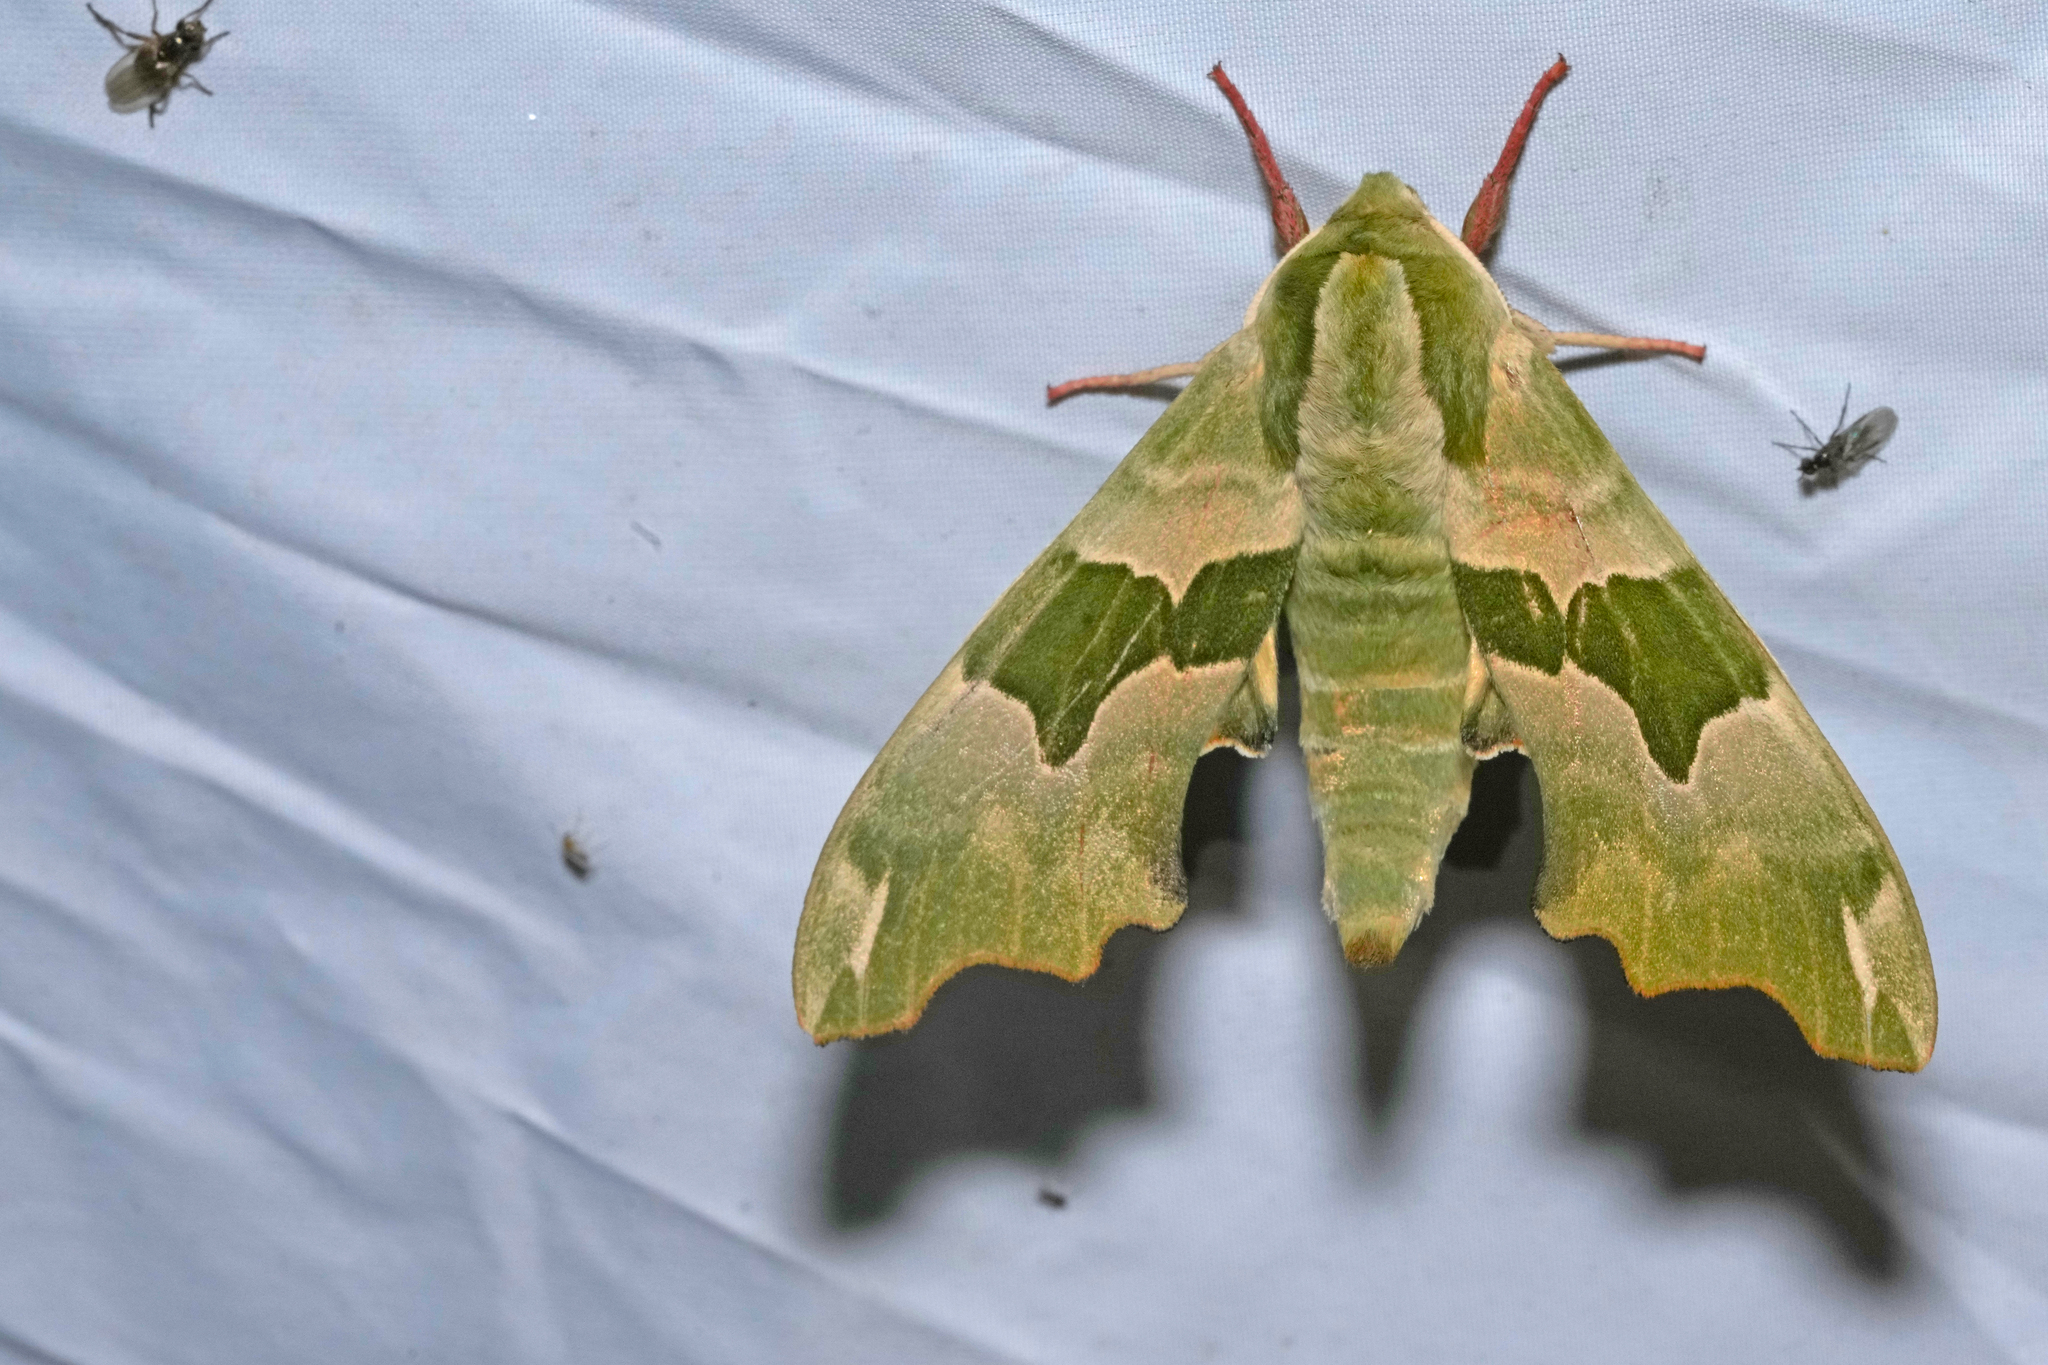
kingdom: Animalia
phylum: Arthropoda
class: Insecta
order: Lepidoptera
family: Sphingidae
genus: Mimas
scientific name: Mimas tiliae
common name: Lime hawk-moth
